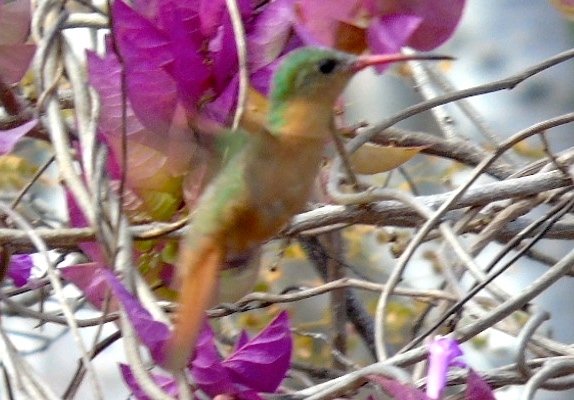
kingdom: Animalia
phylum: Chordata
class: Aves
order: Apodiformes
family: Trochilidae
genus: Amazilia
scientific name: Amazilia rutila
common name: Cinnamon hummingbird
